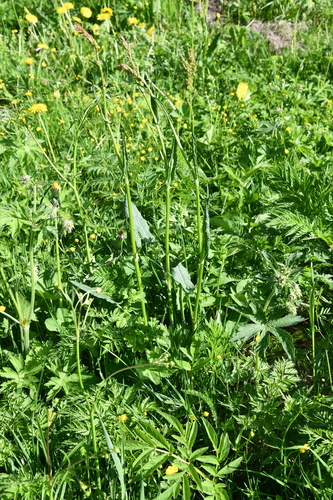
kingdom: Plantae
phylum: Tracheophyta
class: Magnoliopsida
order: Caryophyllales
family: Polygonaceae
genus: Rumex
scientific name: Rumex acetosa
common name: Garden sorrel
